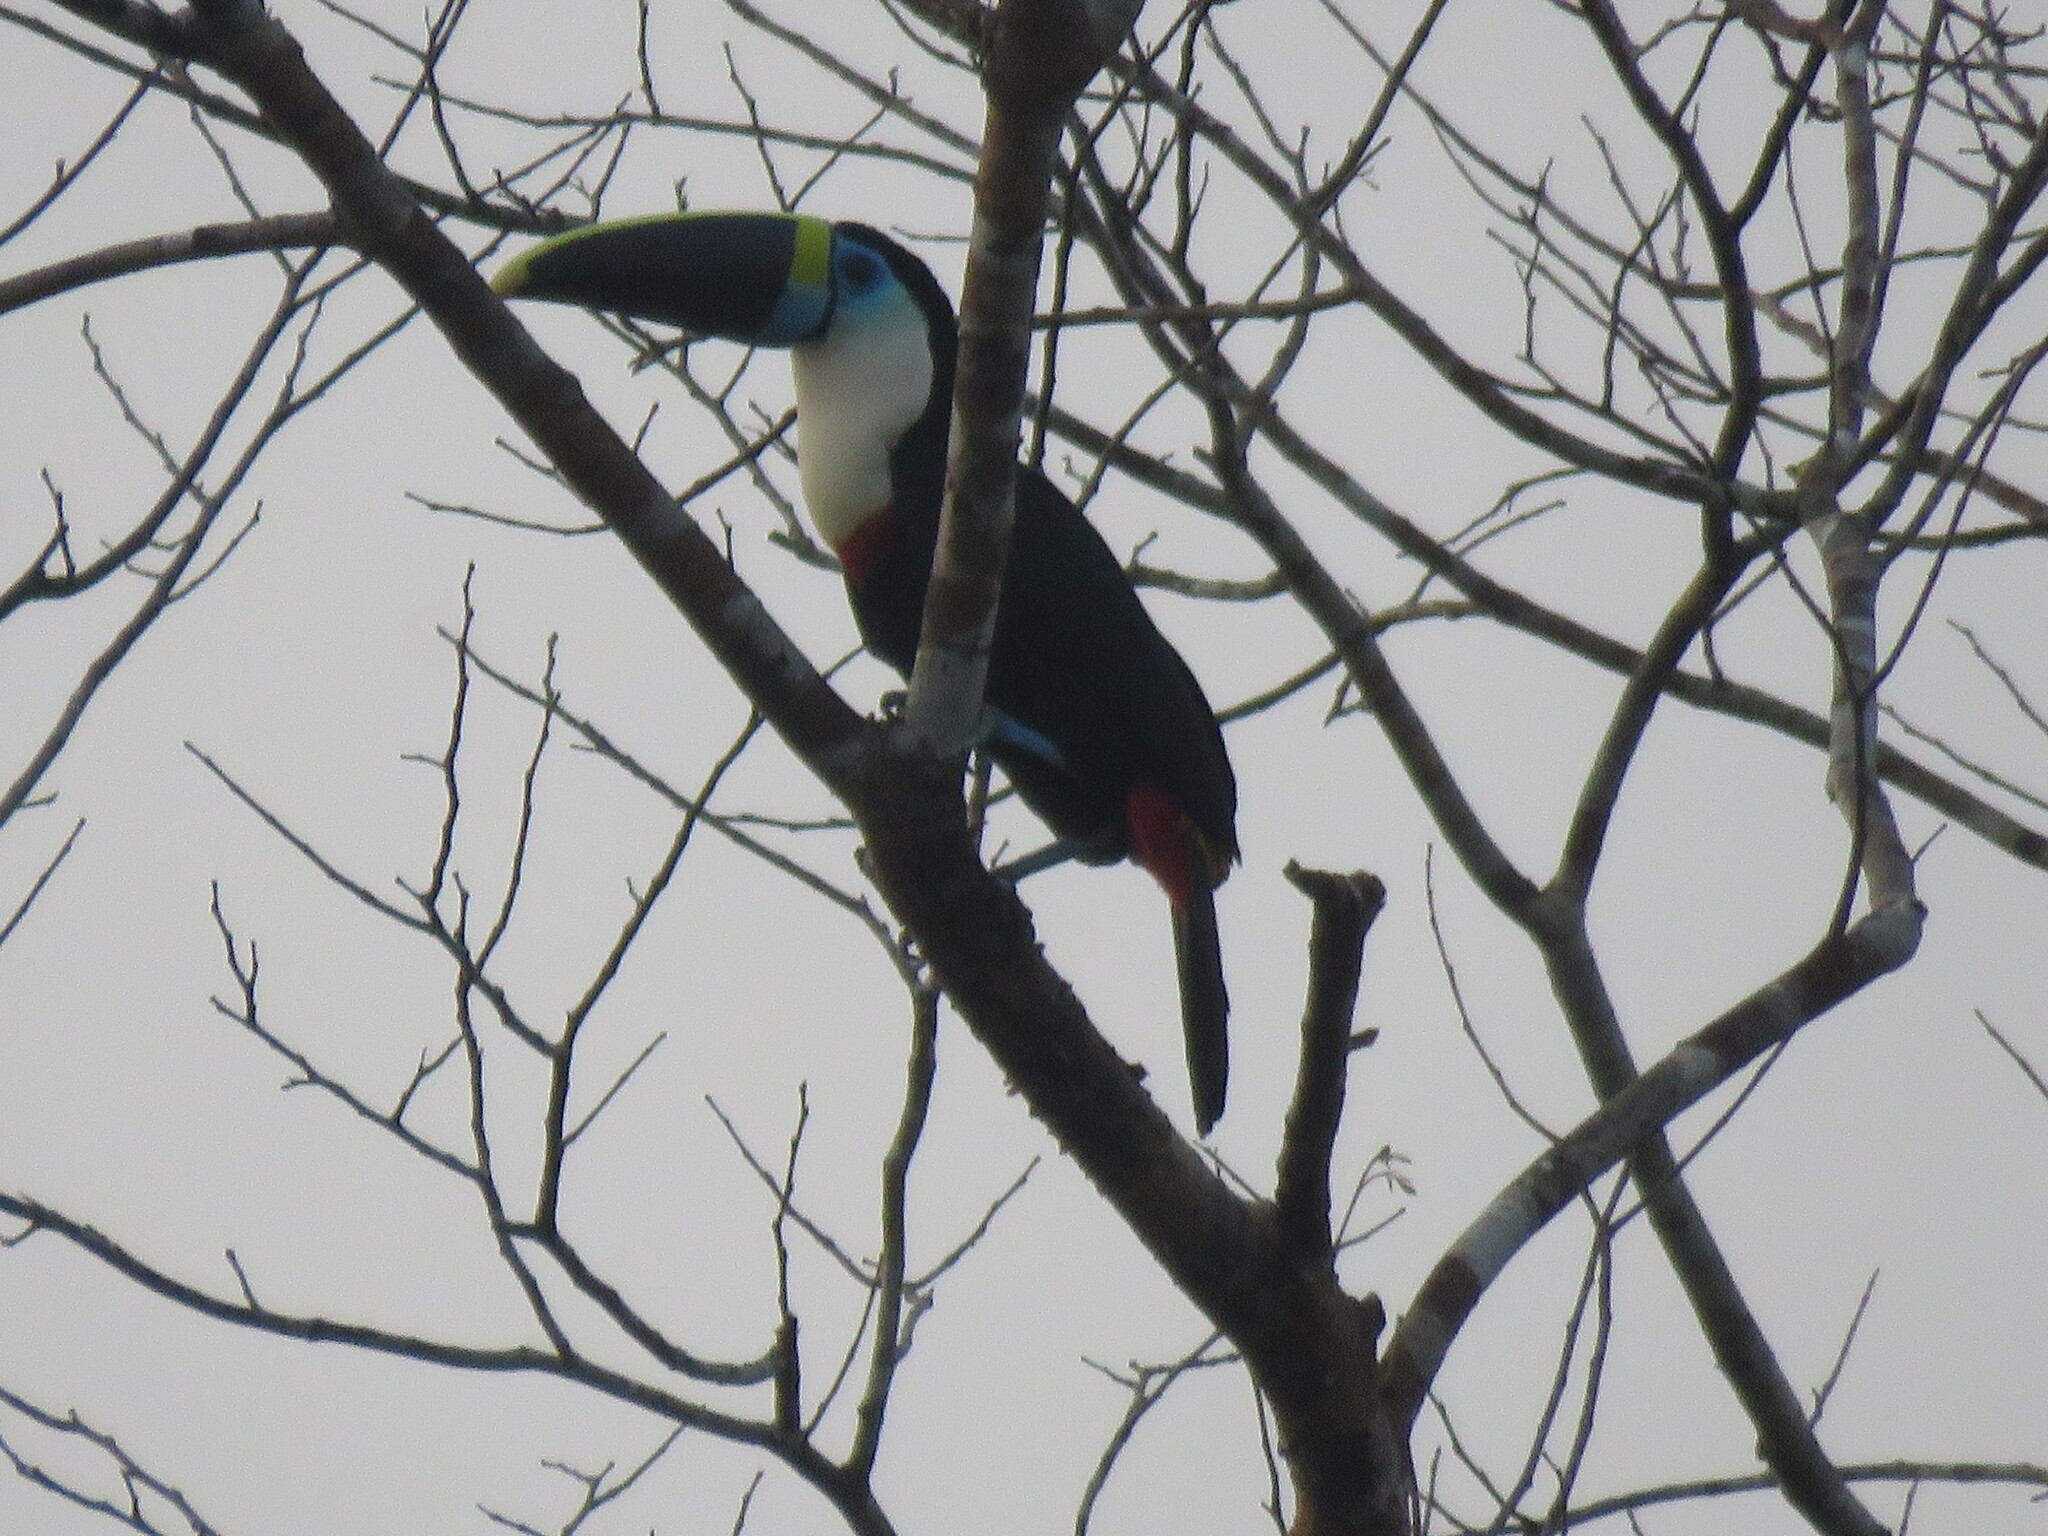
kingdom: Animalia
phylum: Chordata
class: Aves
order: Piciformes
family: Ramphastidae
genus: Ramphastos
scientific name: Ramphastos tucanus
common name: White-throated toucan
